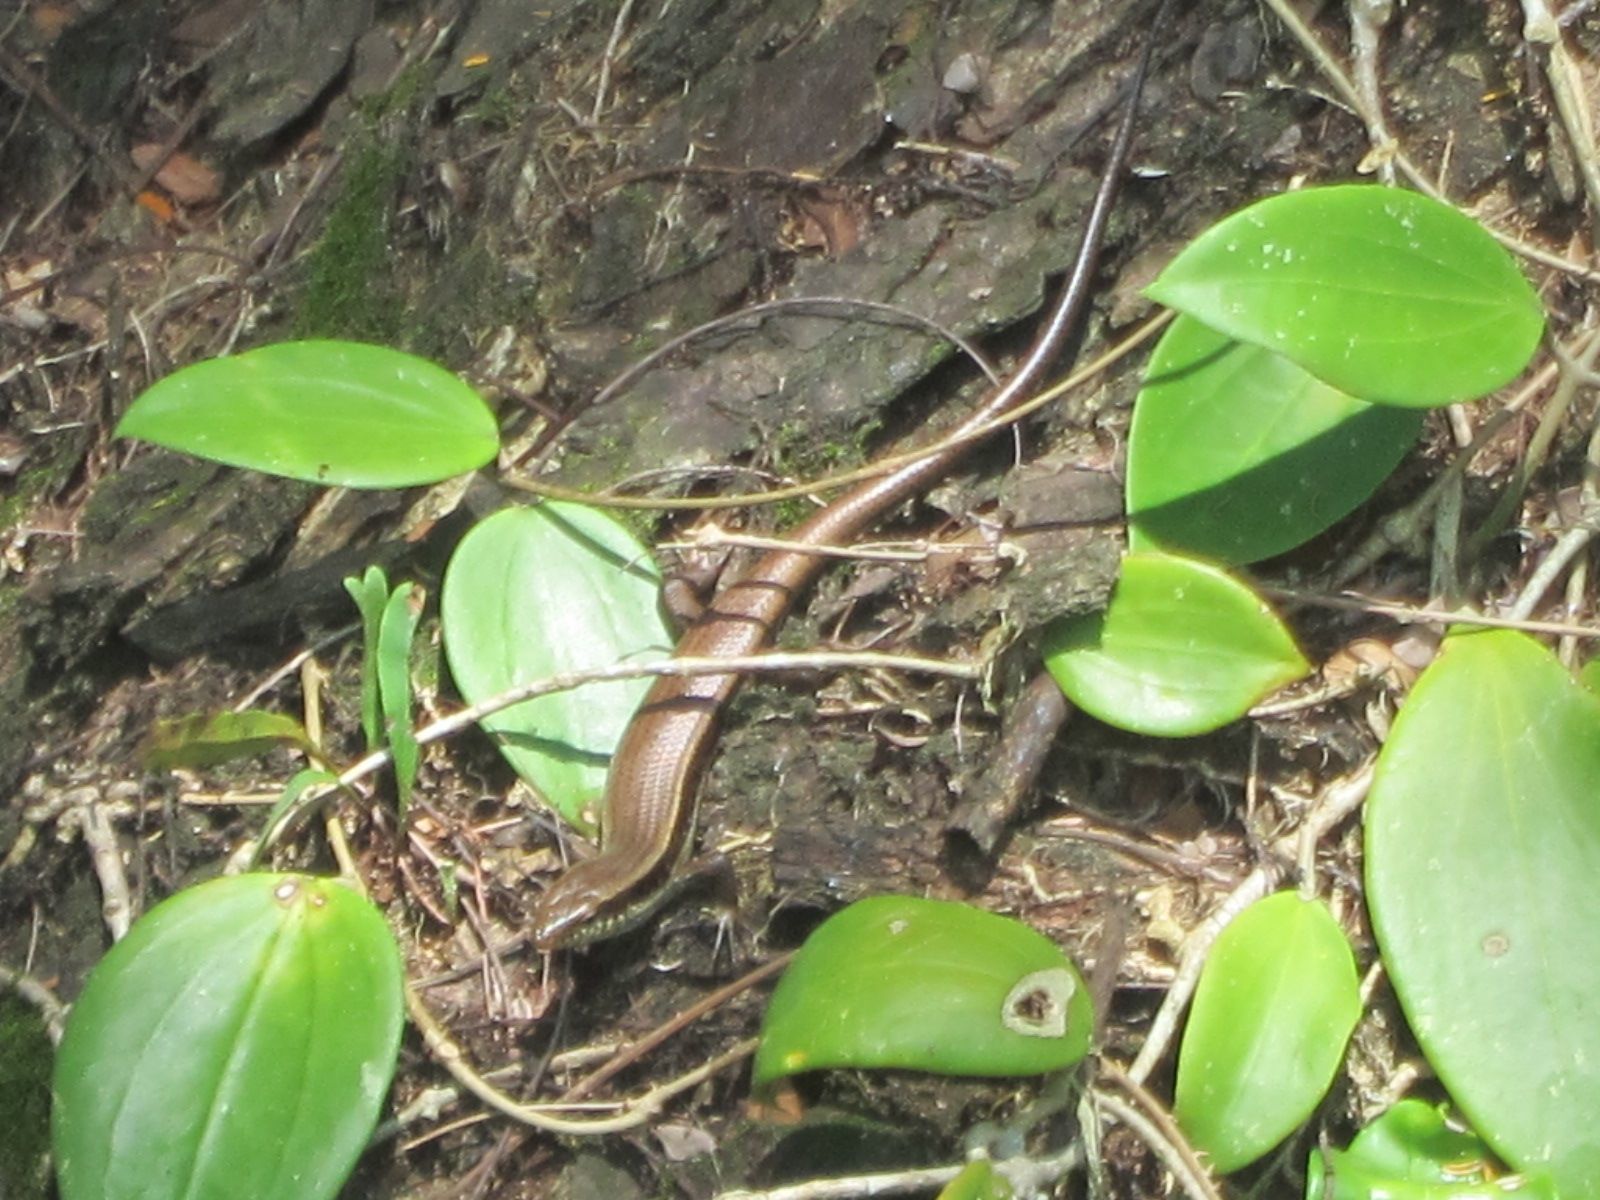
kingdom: Animalia
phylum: Chordata
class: Squamata
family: Scincidae
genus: Eutropis
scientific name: Eutropis longicaudata
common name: Long-tailed sun skink
